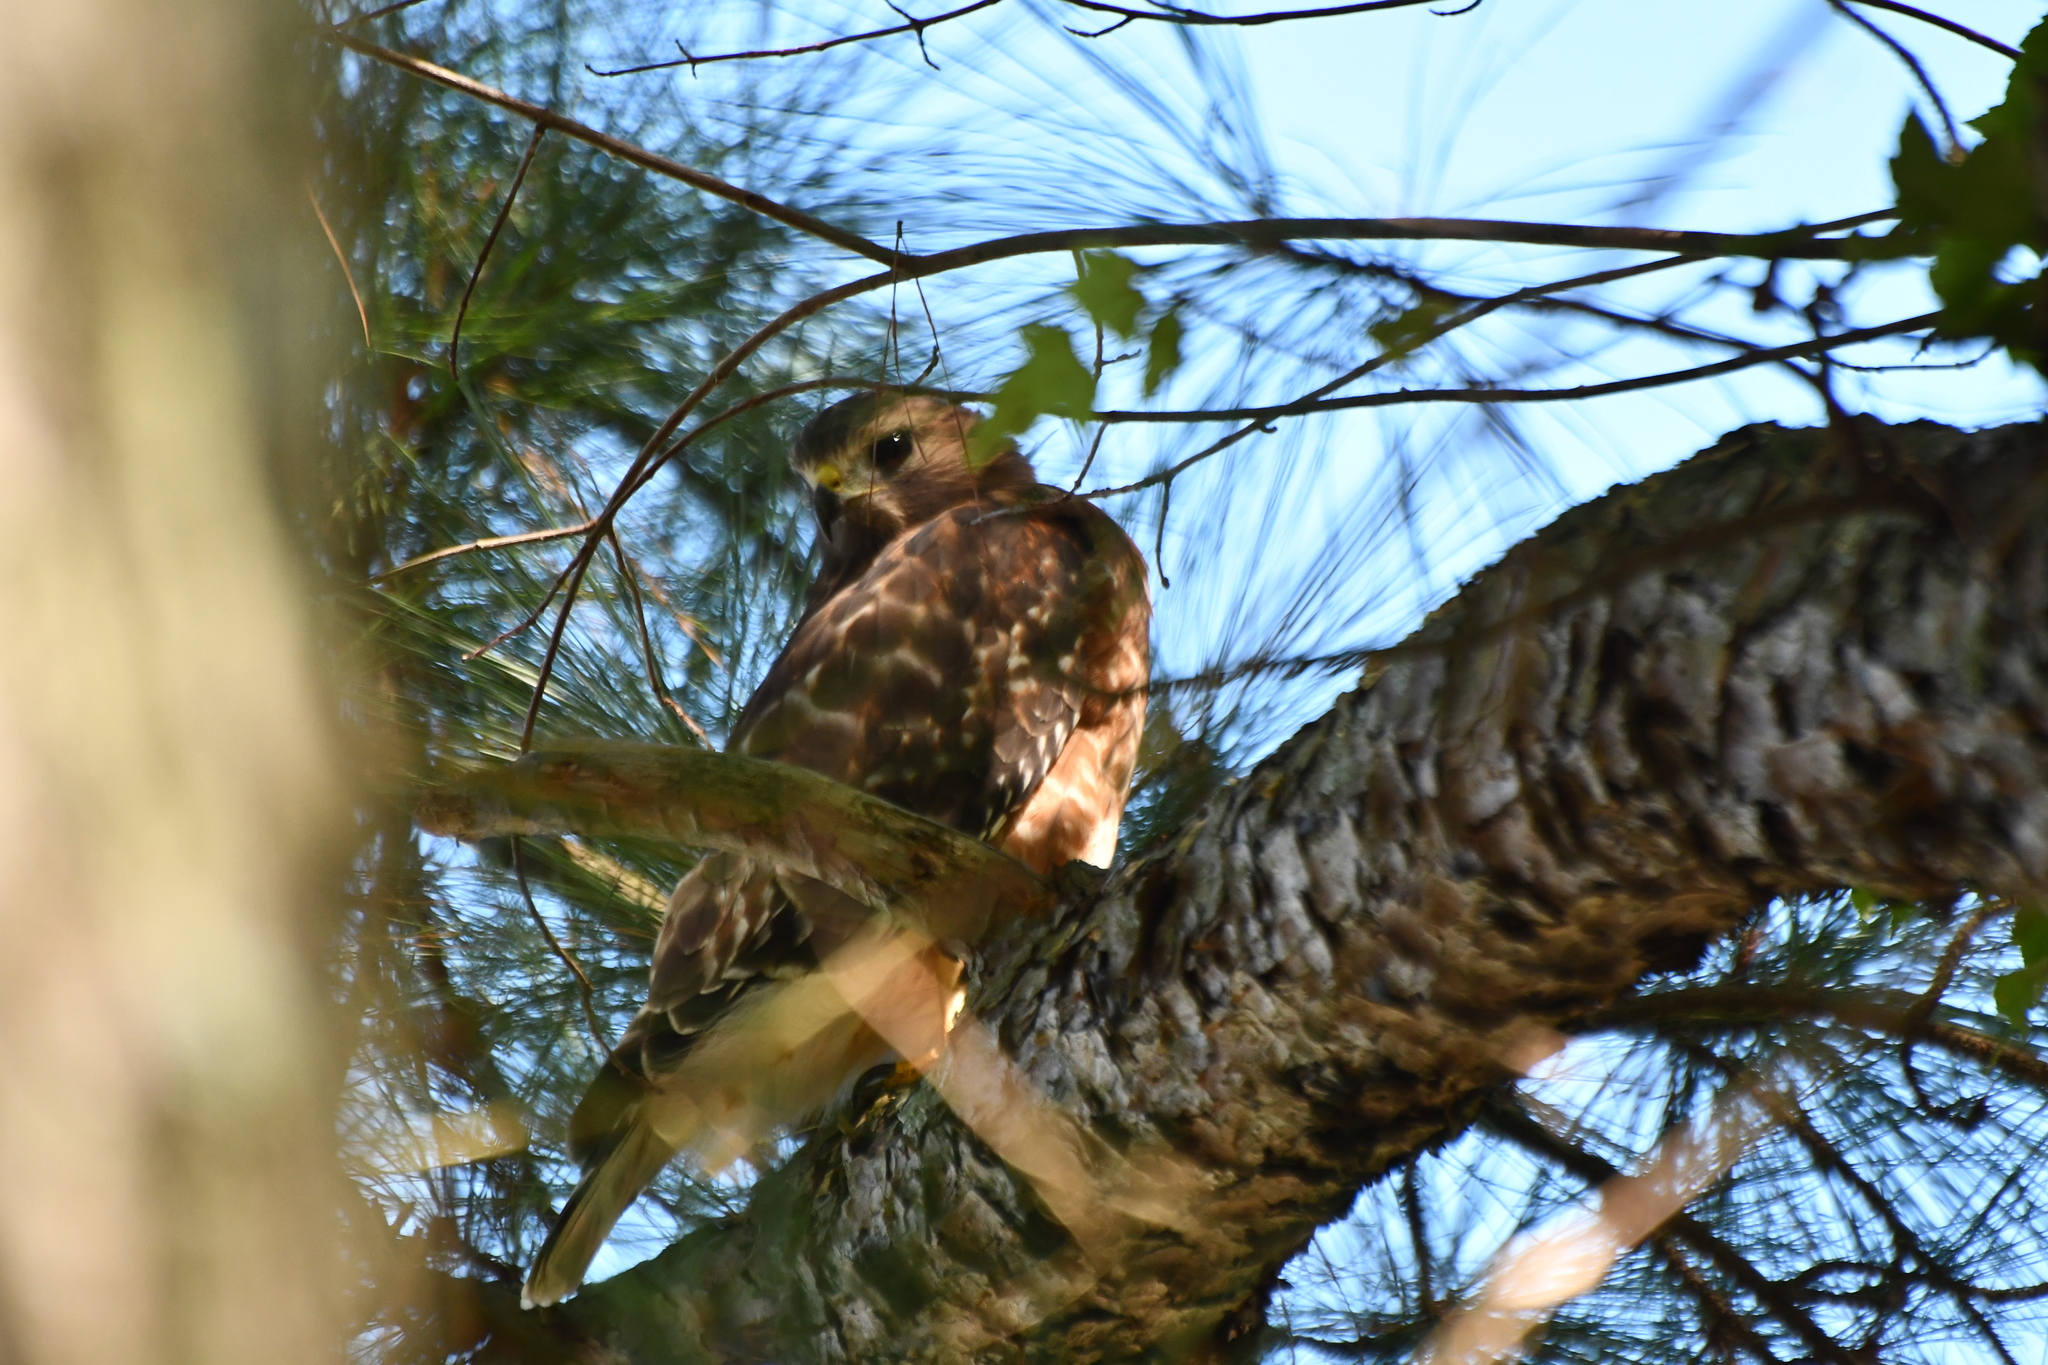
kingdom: Animalia
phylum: Chordata
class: Aves
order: Accipitriformes
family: Accipitridae
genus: Buteo
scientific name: Buteo lineatus
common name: Red-shouldered hawk
